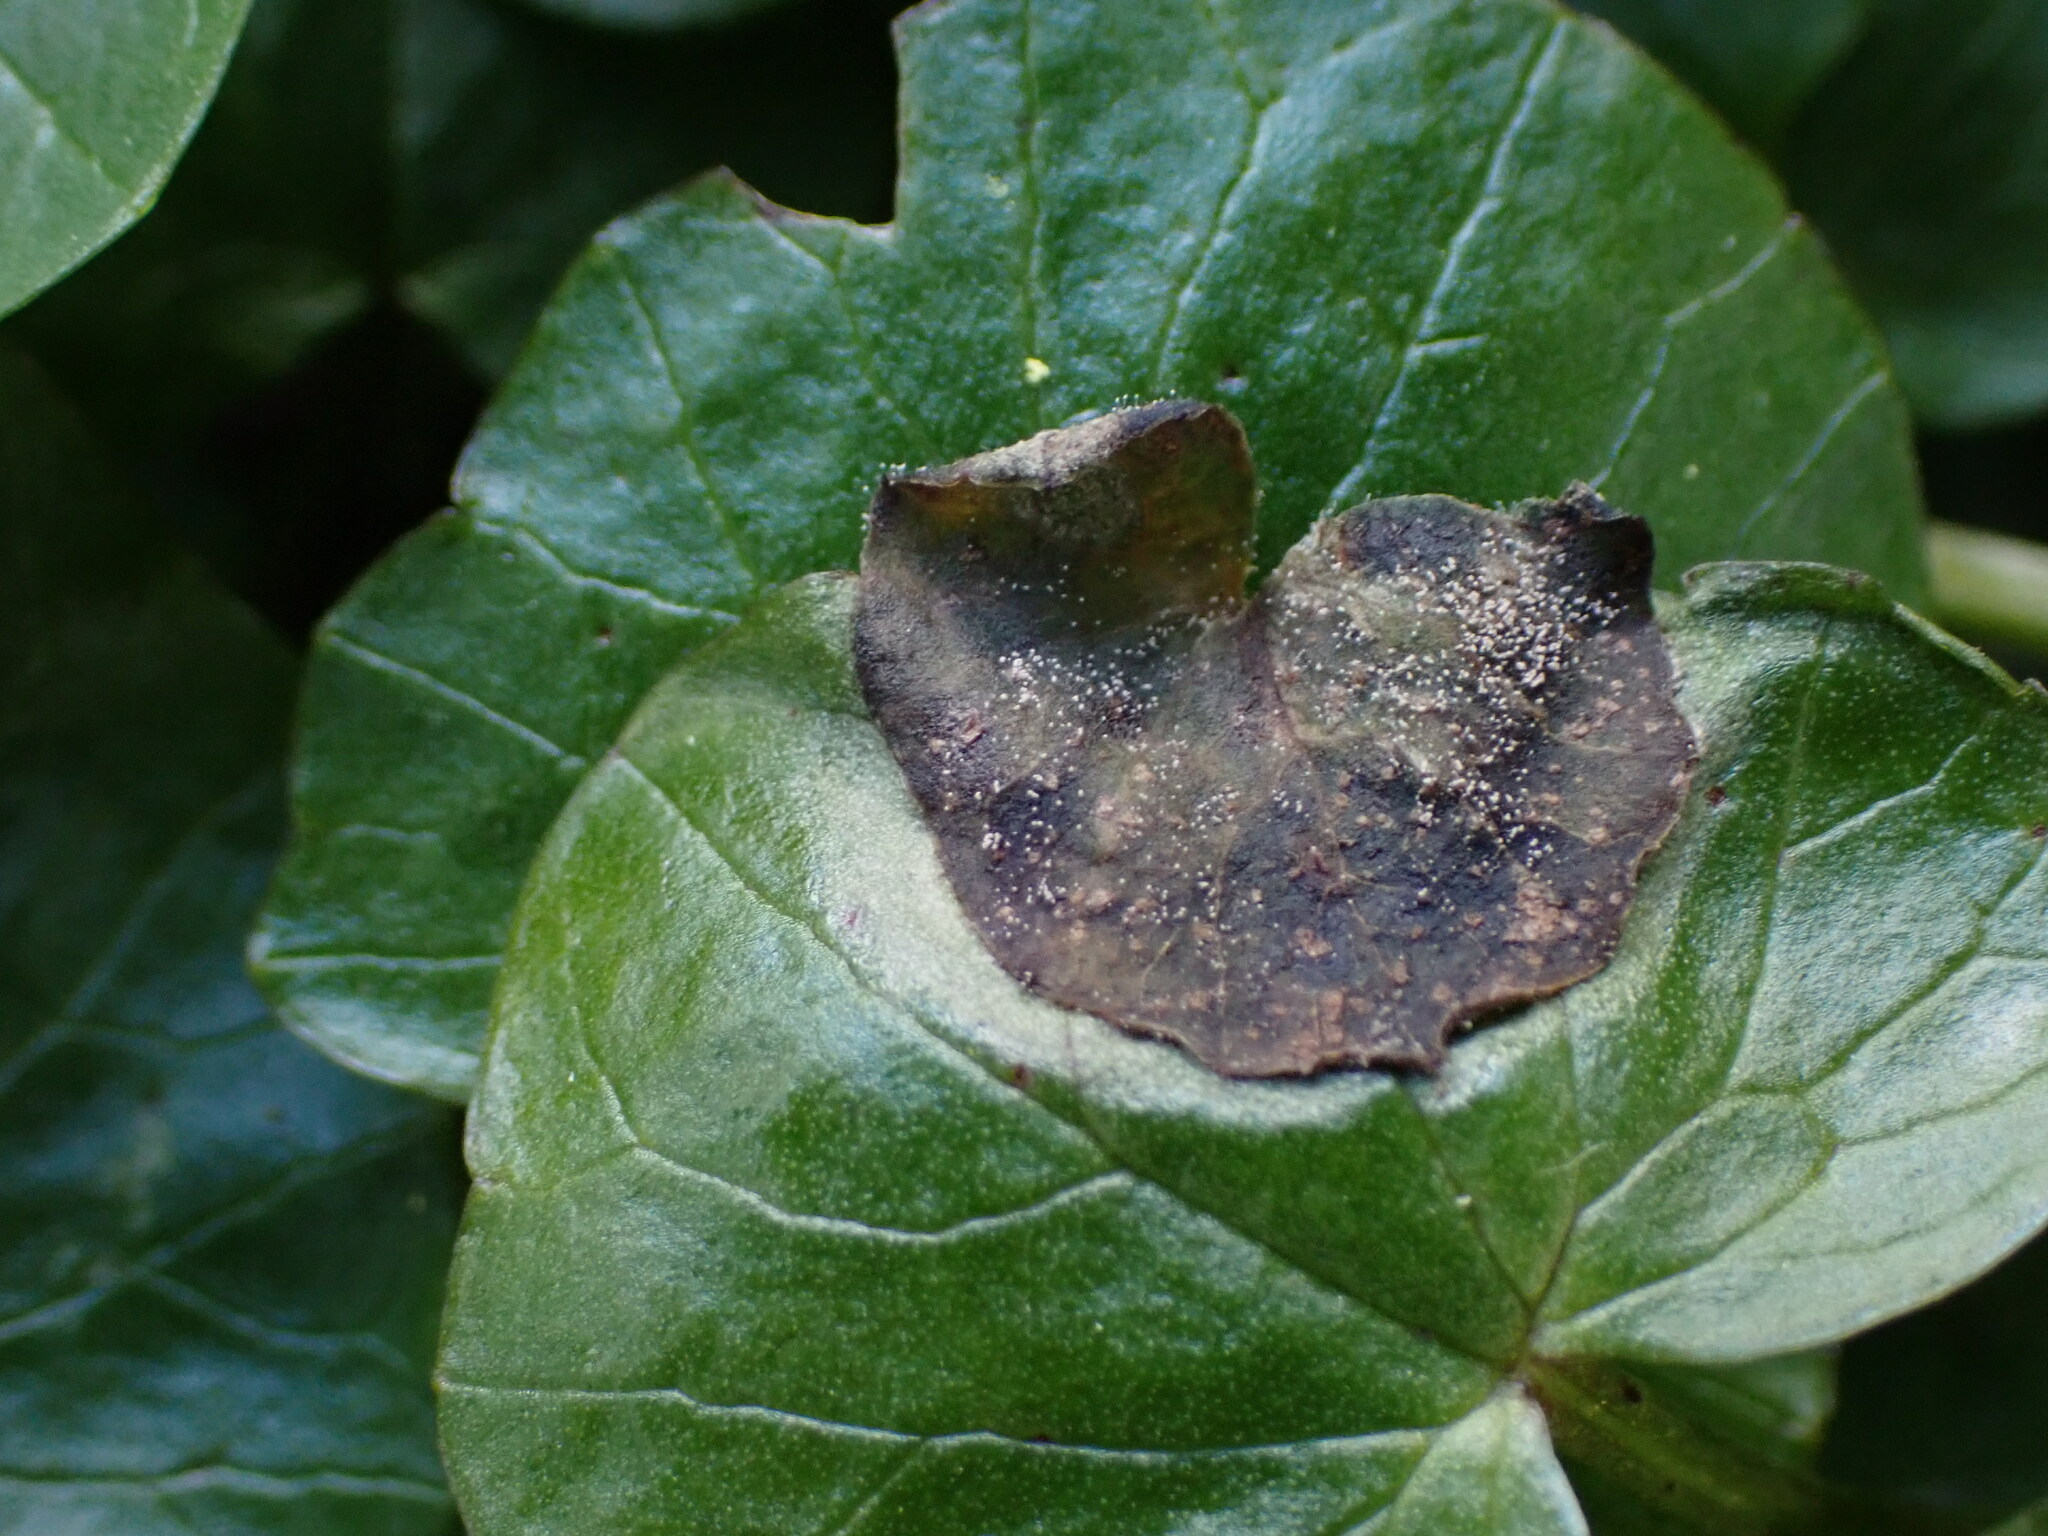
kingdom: Fungi
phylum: Ascomycota
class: Leotiomycetes
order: Helotiales
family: Sclerotiniaceae
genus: Botryotinia
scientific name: Botryotinia ficariarum
